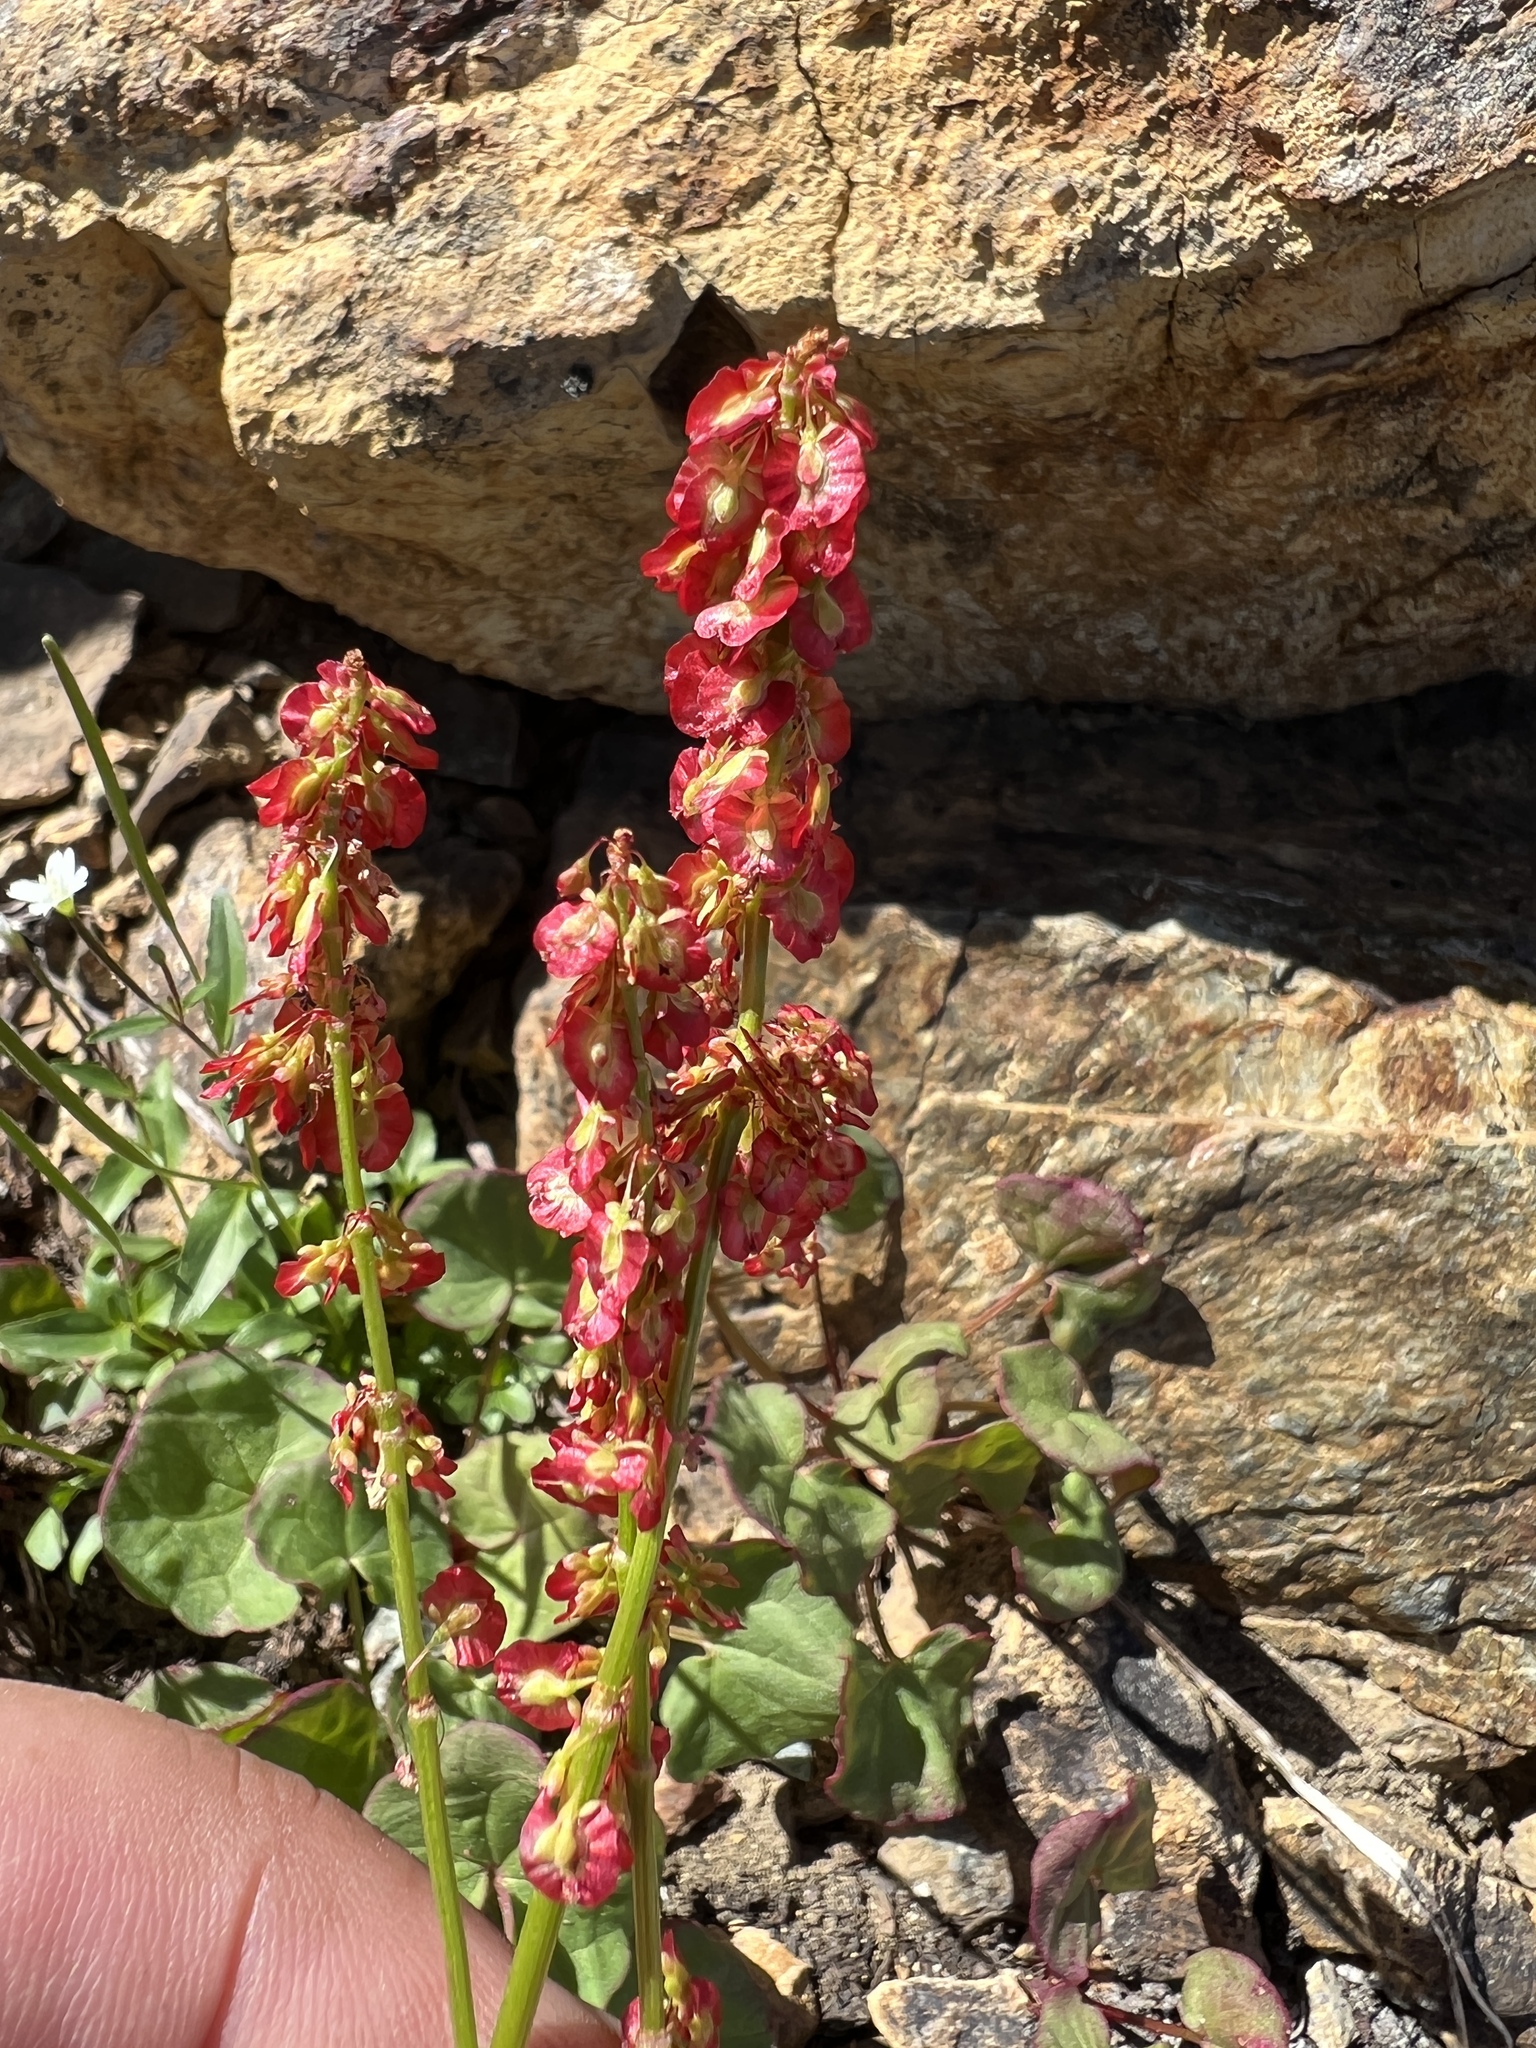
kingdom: Plantae
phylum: Tracheophyta
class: Magnoliopsida
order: Caryophyllales
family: Polygonaceae
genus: Oxyria
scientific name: Oxyria digyna
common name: Alpine mountain-sorrel
